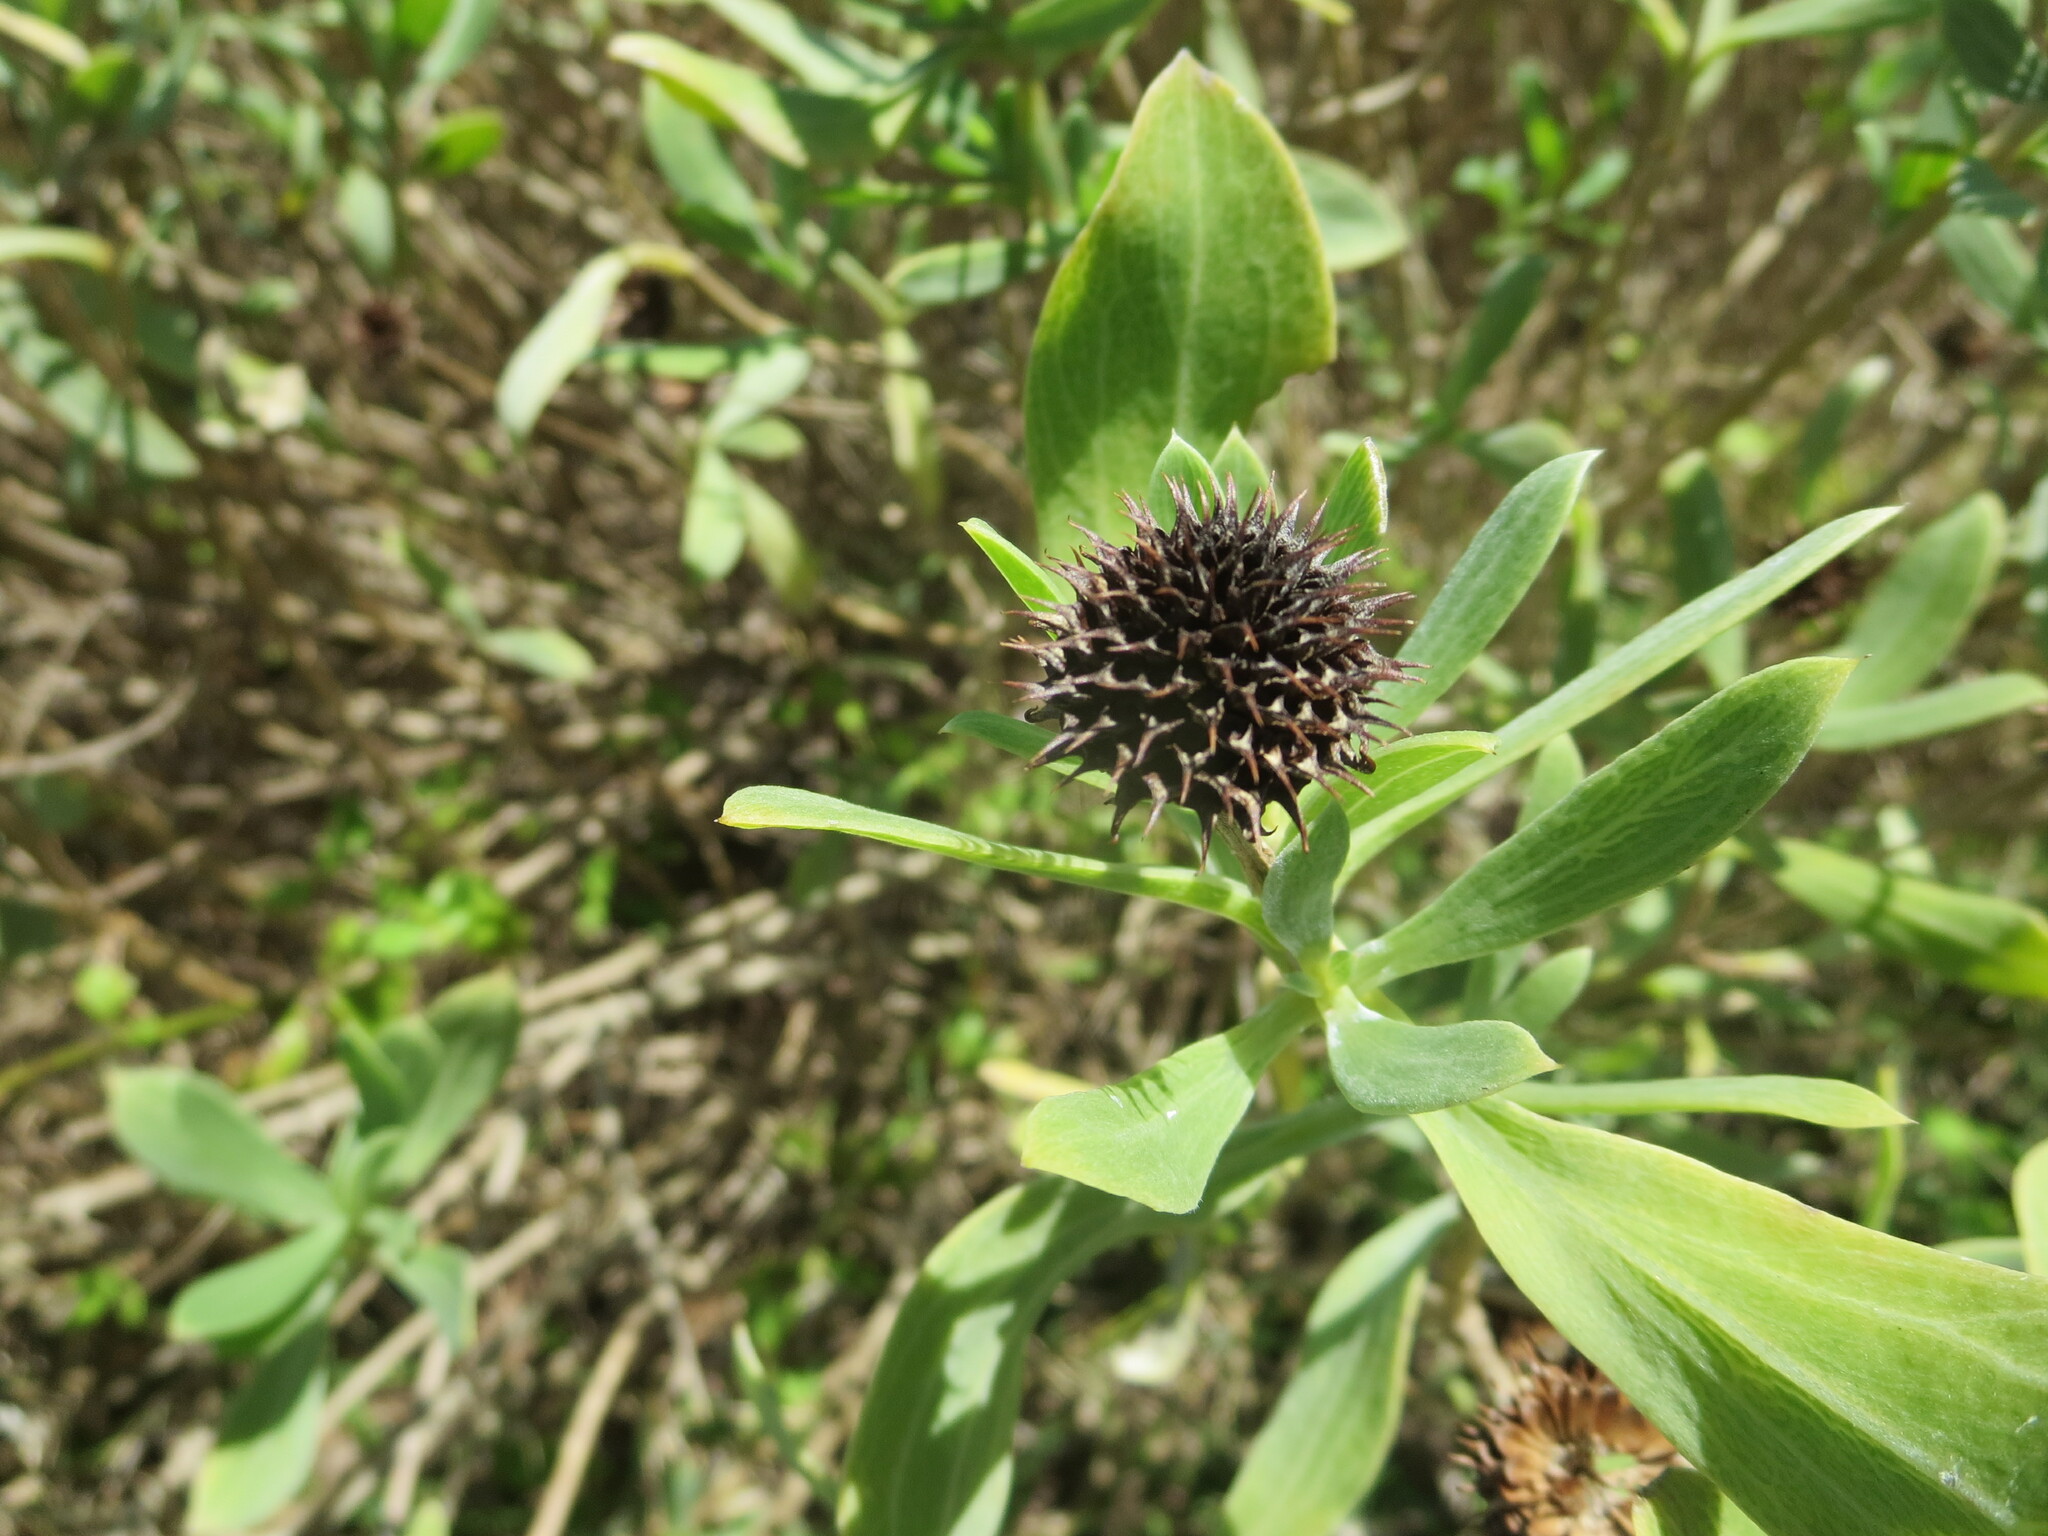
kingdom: Plantae
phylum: Tracheophyta
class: Magnoliopsida
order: Asterales
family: Asteraceae
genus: Borrichia
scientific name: Borrichia frutescens
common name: Sea oxeye
